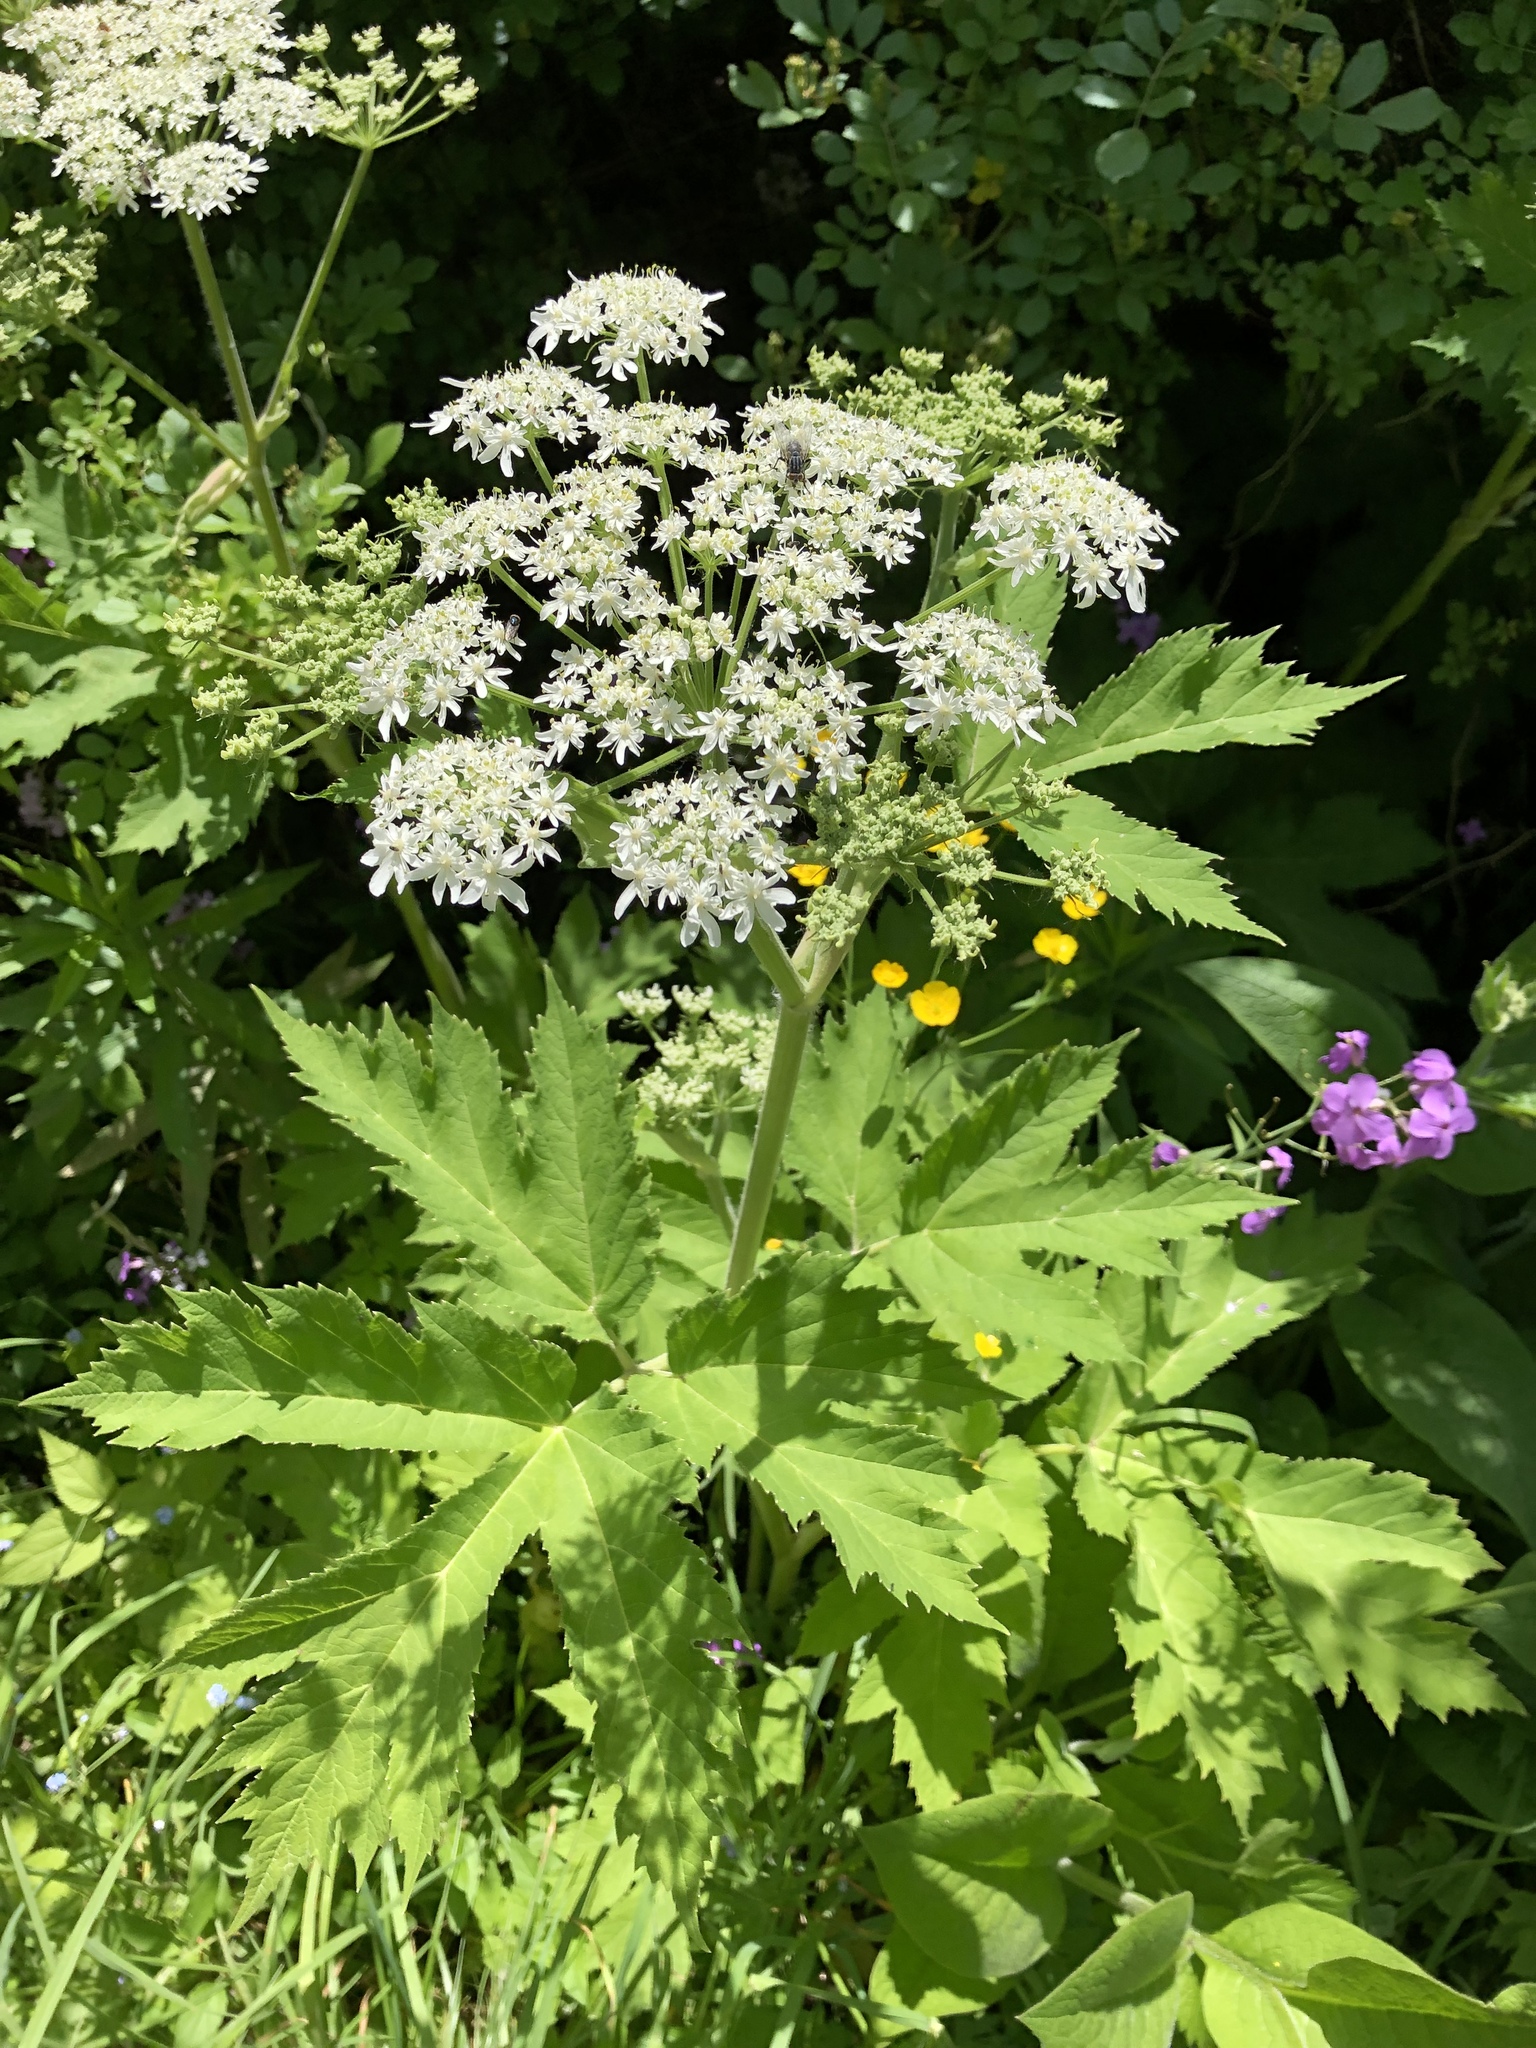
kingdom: Plantae
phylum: Tracheophyta
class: Magnoliopsida
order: Apiales
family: Apiaceae
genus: Heracleum
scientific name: Heracleum maximum
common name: American cow parsnip
